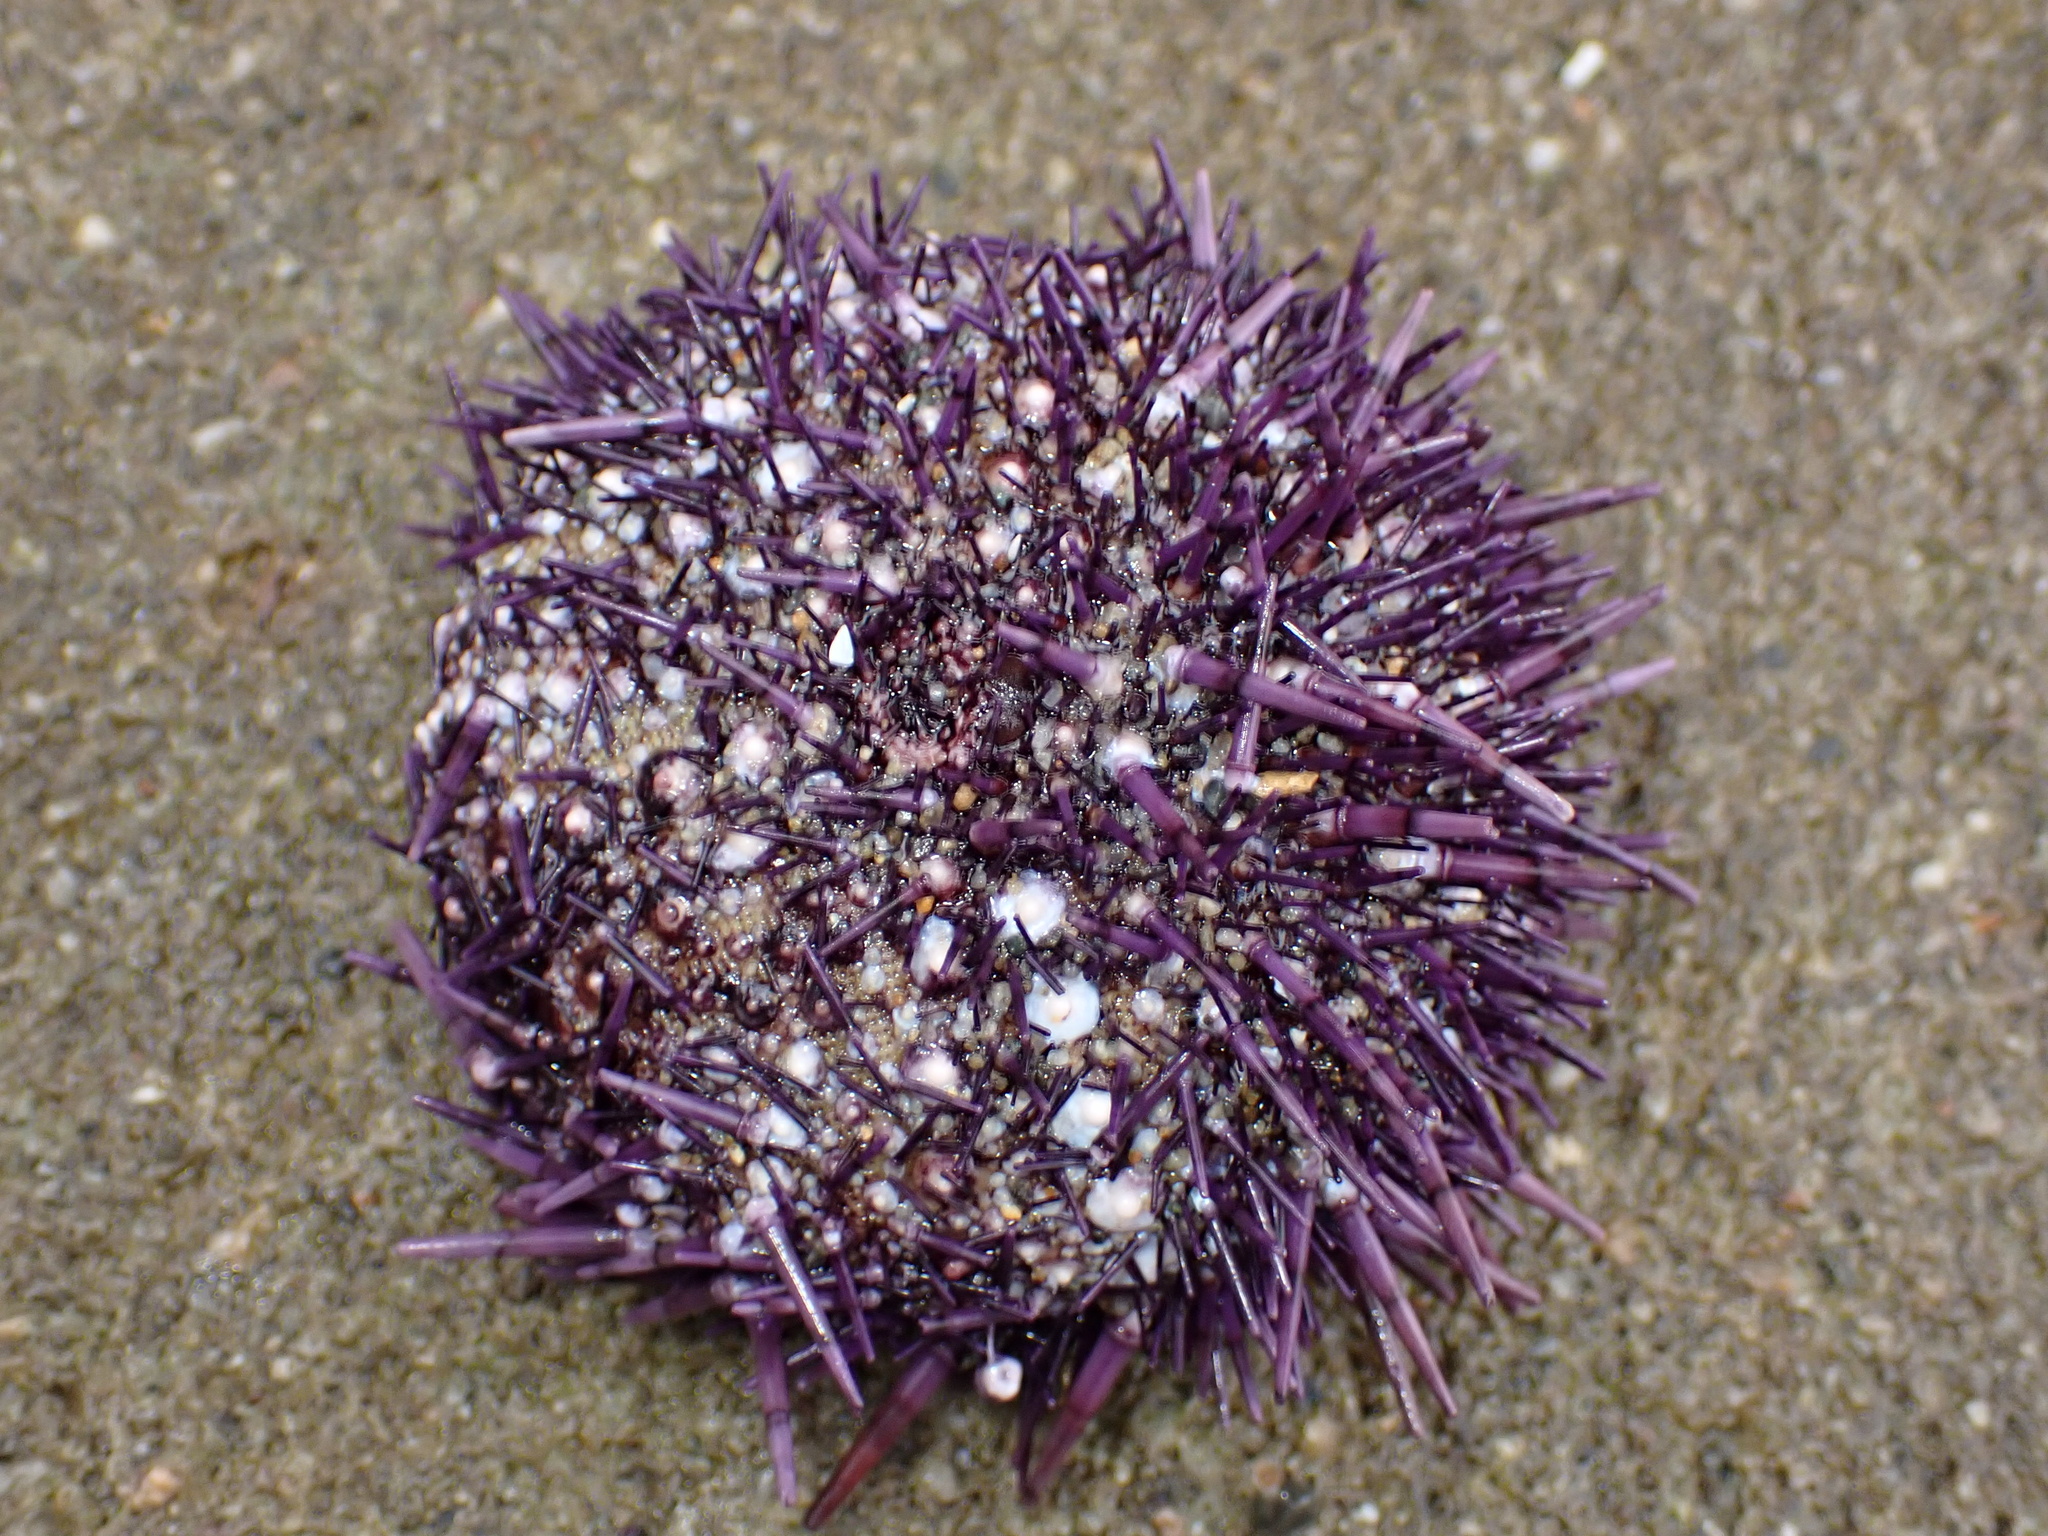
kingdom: Animalia
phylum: Echinodermata
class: Echinoidea
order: Camarodonta
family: Strongylocentrotidae
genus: Strongylocentrotus
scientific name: Strongylocentrotus purpuratus
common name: Purple sea urchin
